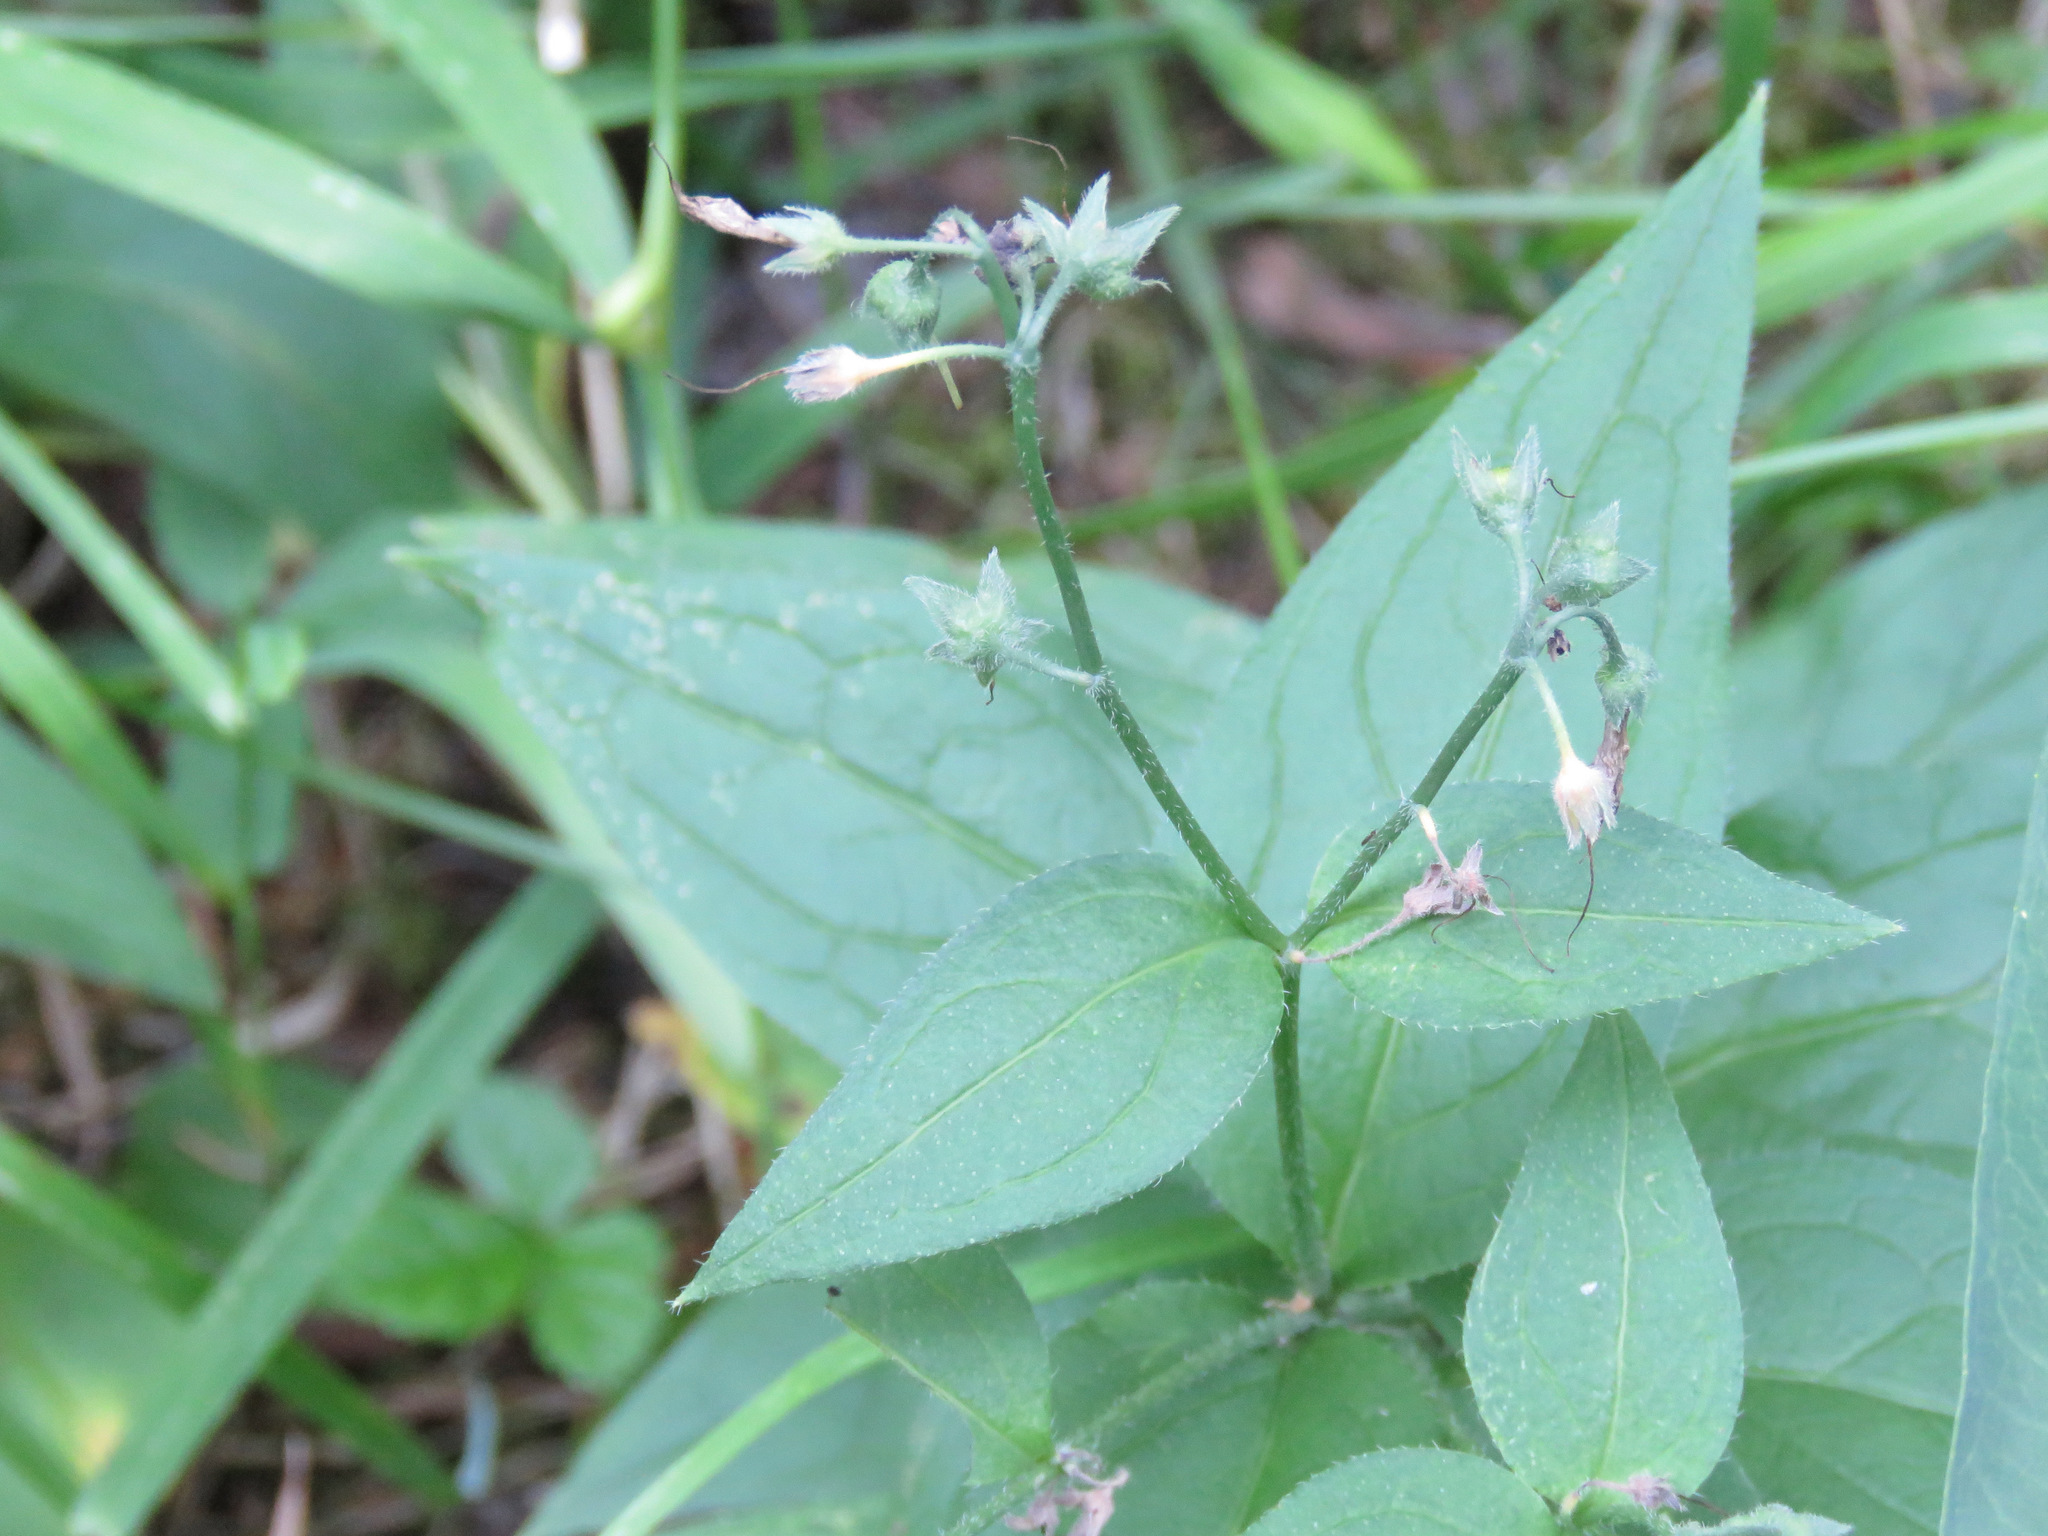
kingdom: Plantae
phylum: Tracheophyta
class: Magnoliopsida
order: Boraginales
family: Boraginaceae
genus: Mertensia
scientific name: Mertensia paniculata
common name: Panicled bluebells
